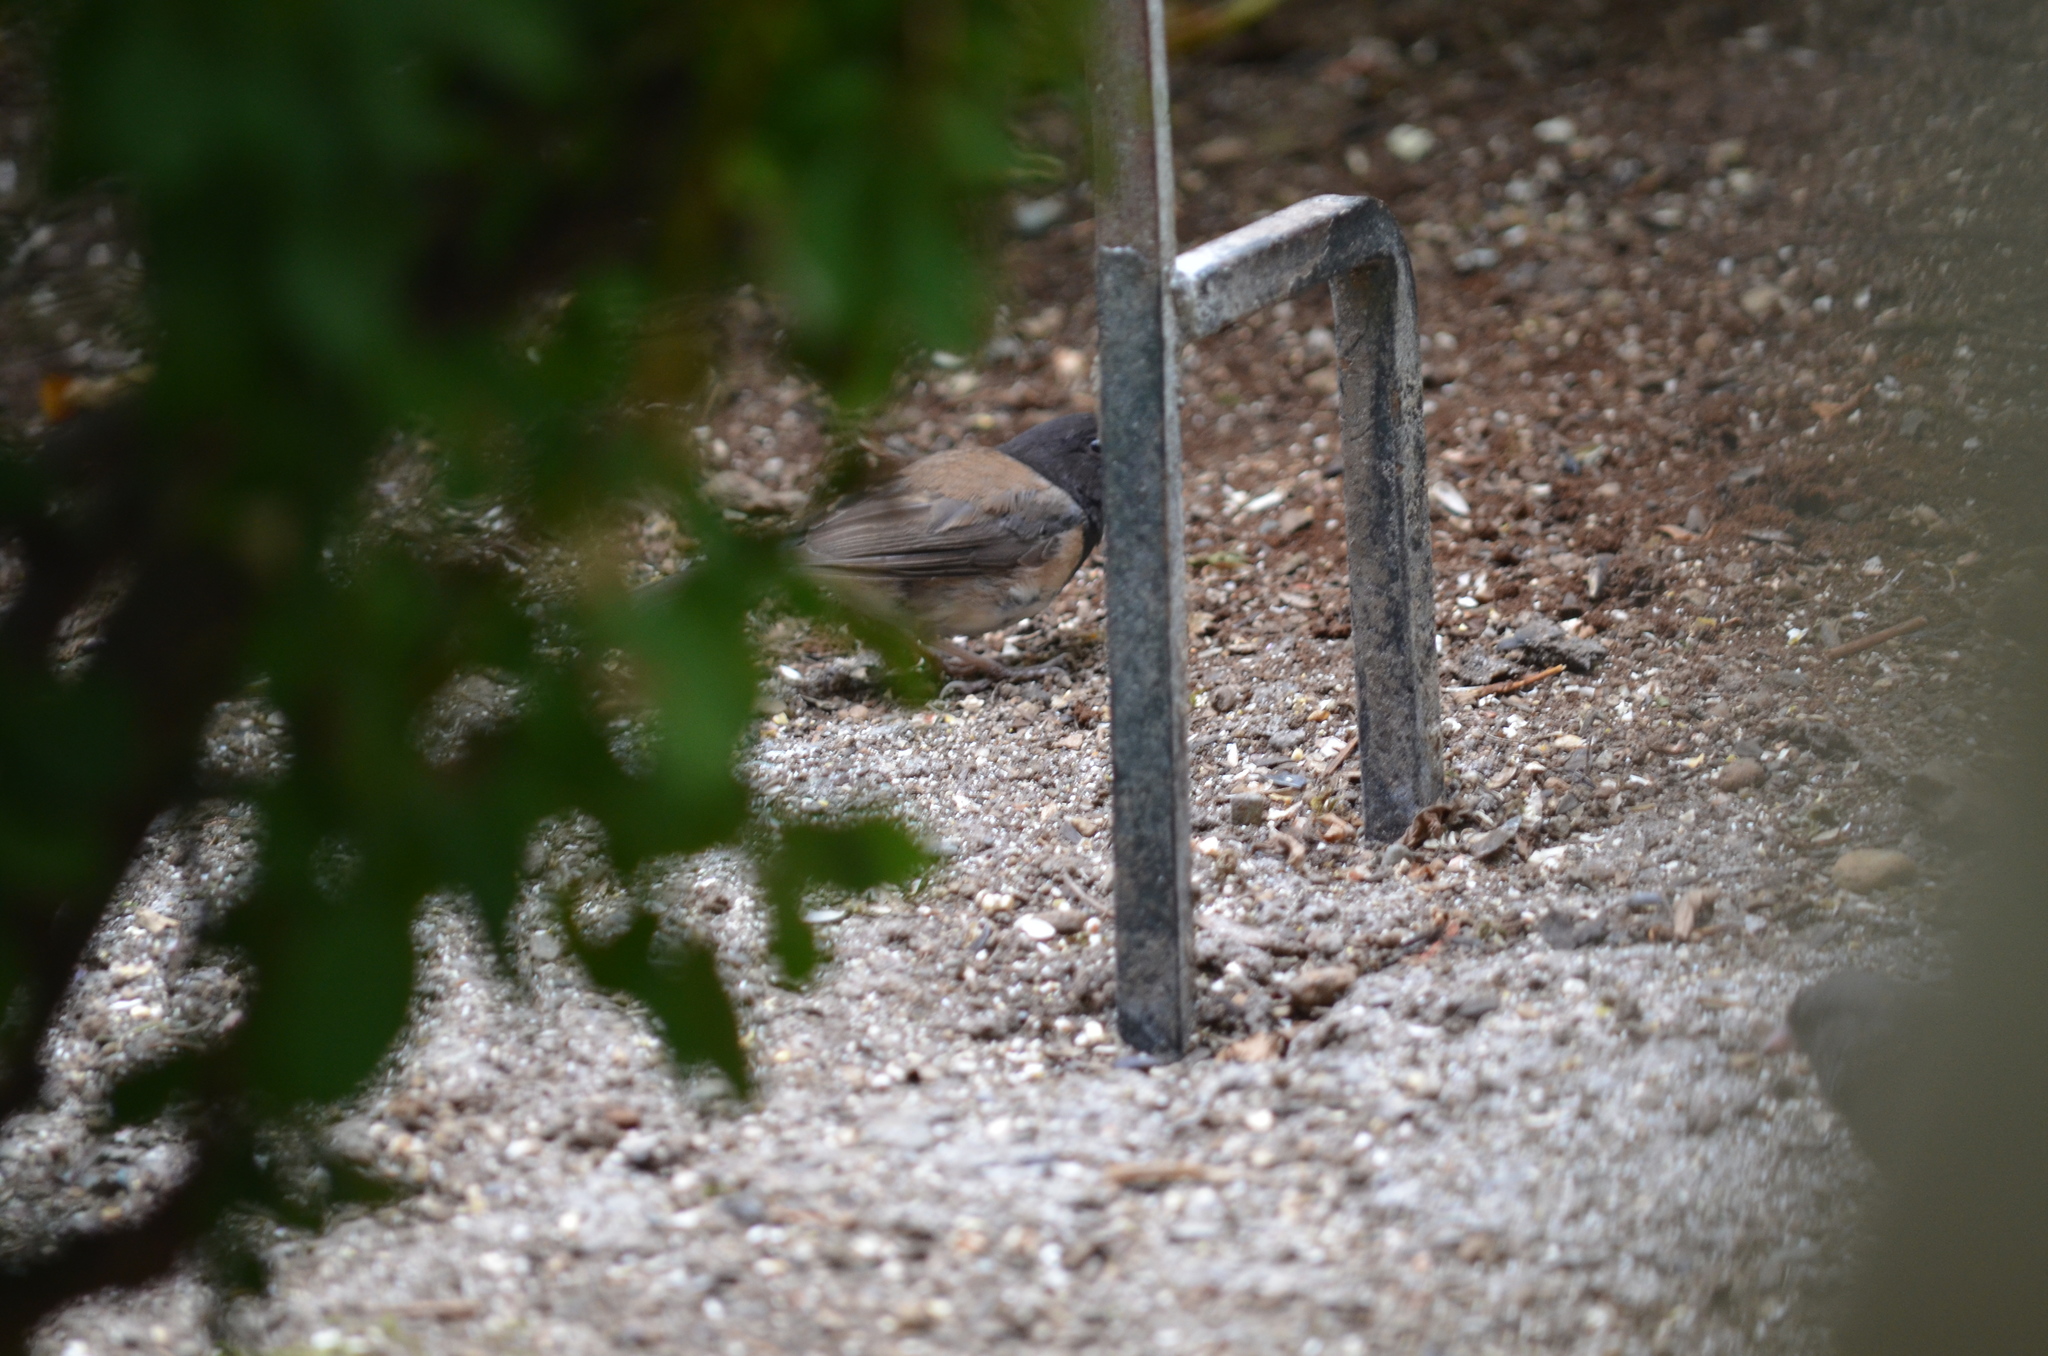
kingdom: Animalia
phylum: Chordata
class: Aves
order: Passeriformes
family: Passerellidae
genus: Junco
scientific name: Junco hyemalis
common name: Dark-eyed junco
